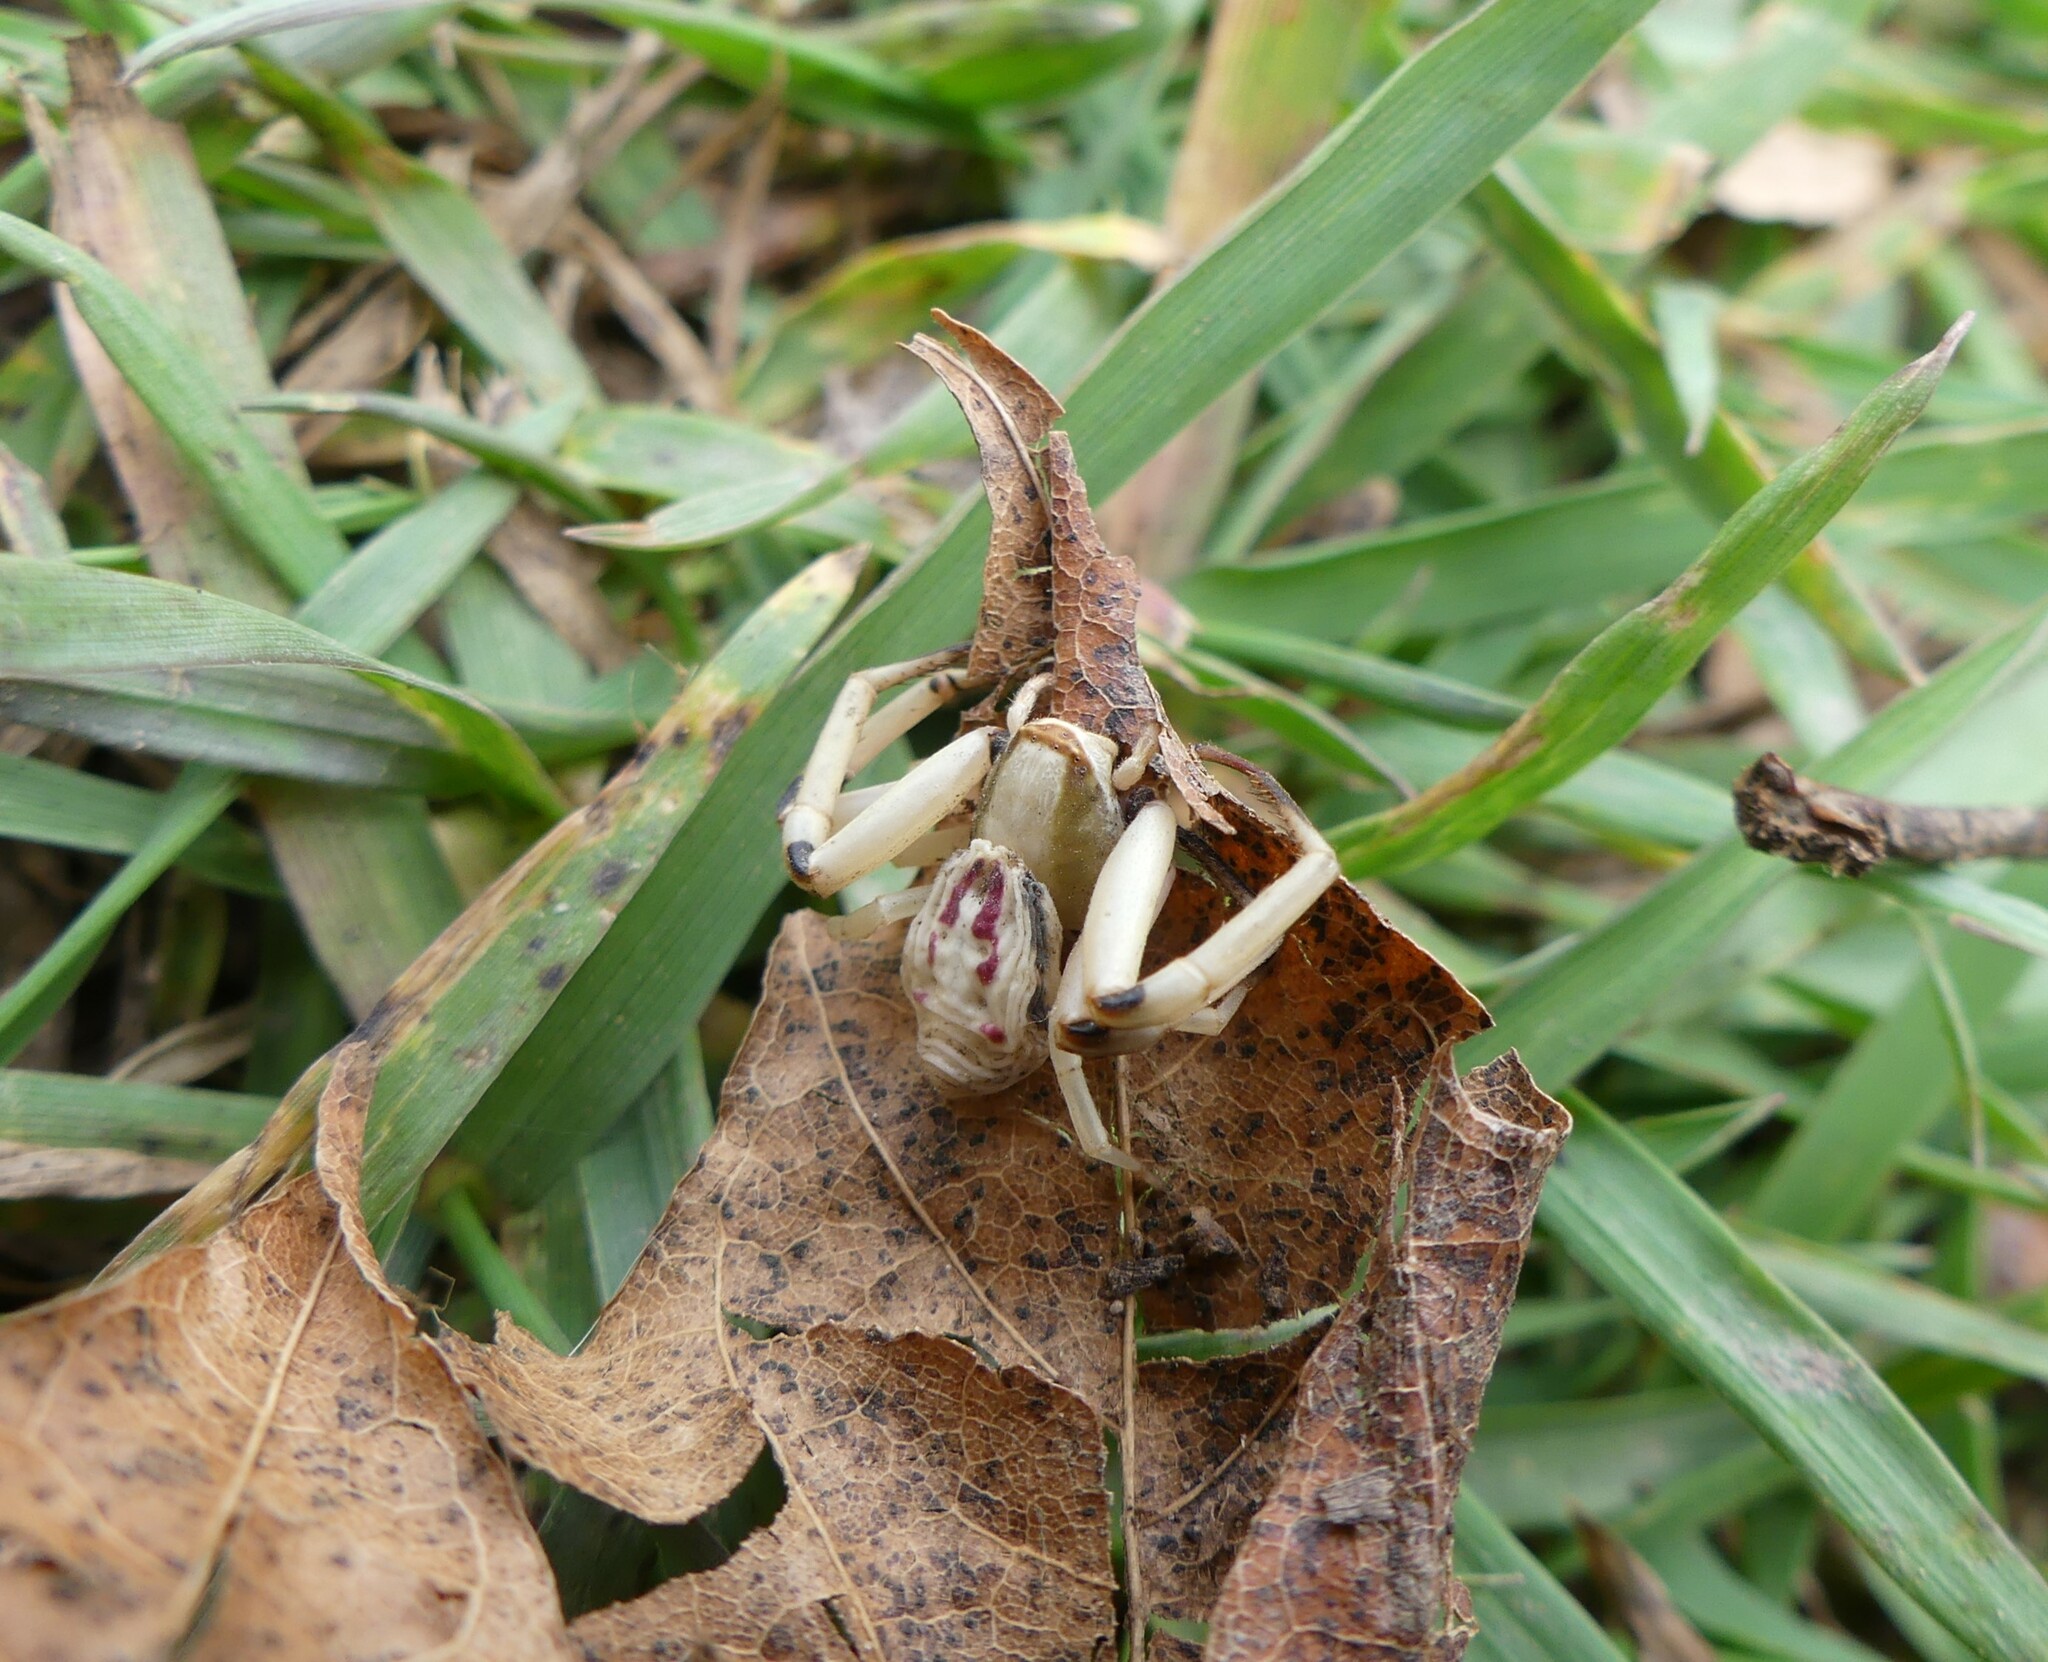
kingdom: Animalia
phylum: Arthropoda
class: Arachnida
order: Araneae
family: Thomisidae
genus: Misumenoides
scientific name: Misumenoides formosipes
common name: White-banded crab spider
